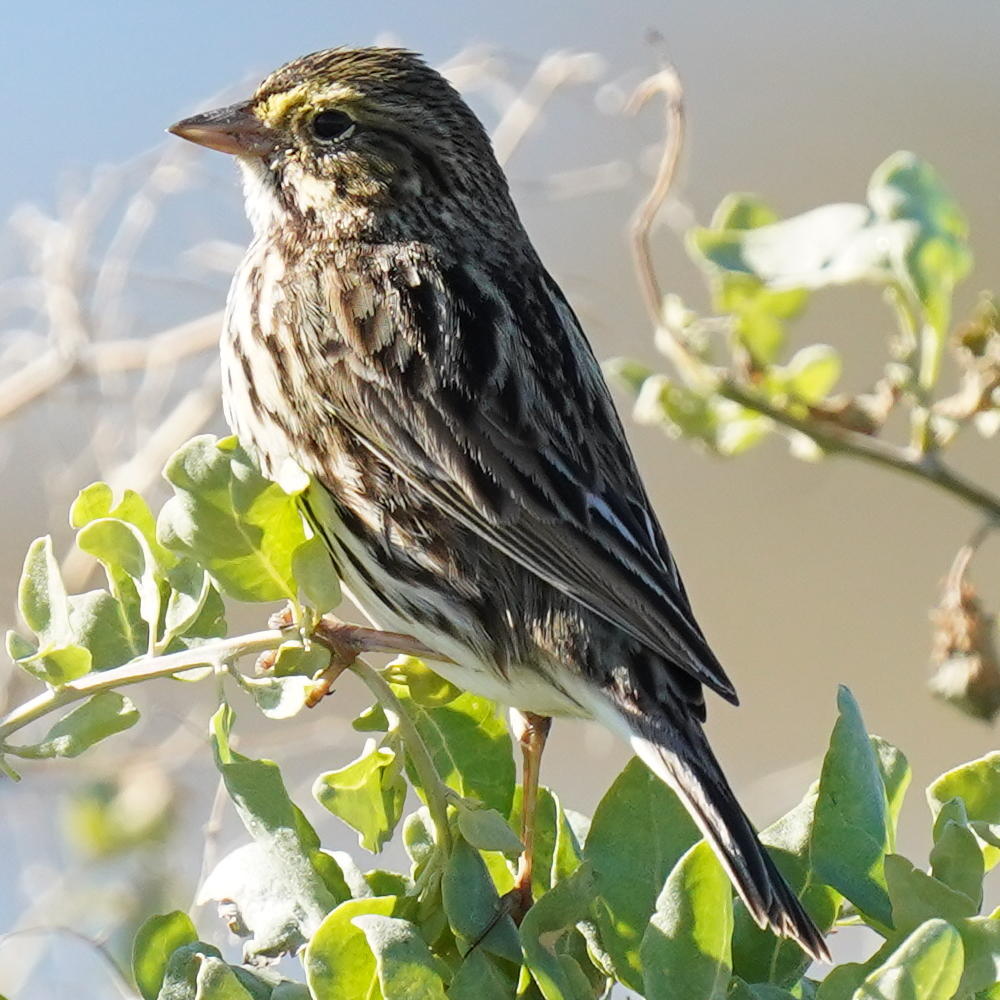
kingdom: Animalia
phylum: Chordata
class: Aves
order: Passeriformes
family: Passerellidae
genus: Passerculus
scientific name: Passerculus sandwichensis
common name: Savannah sparrow
